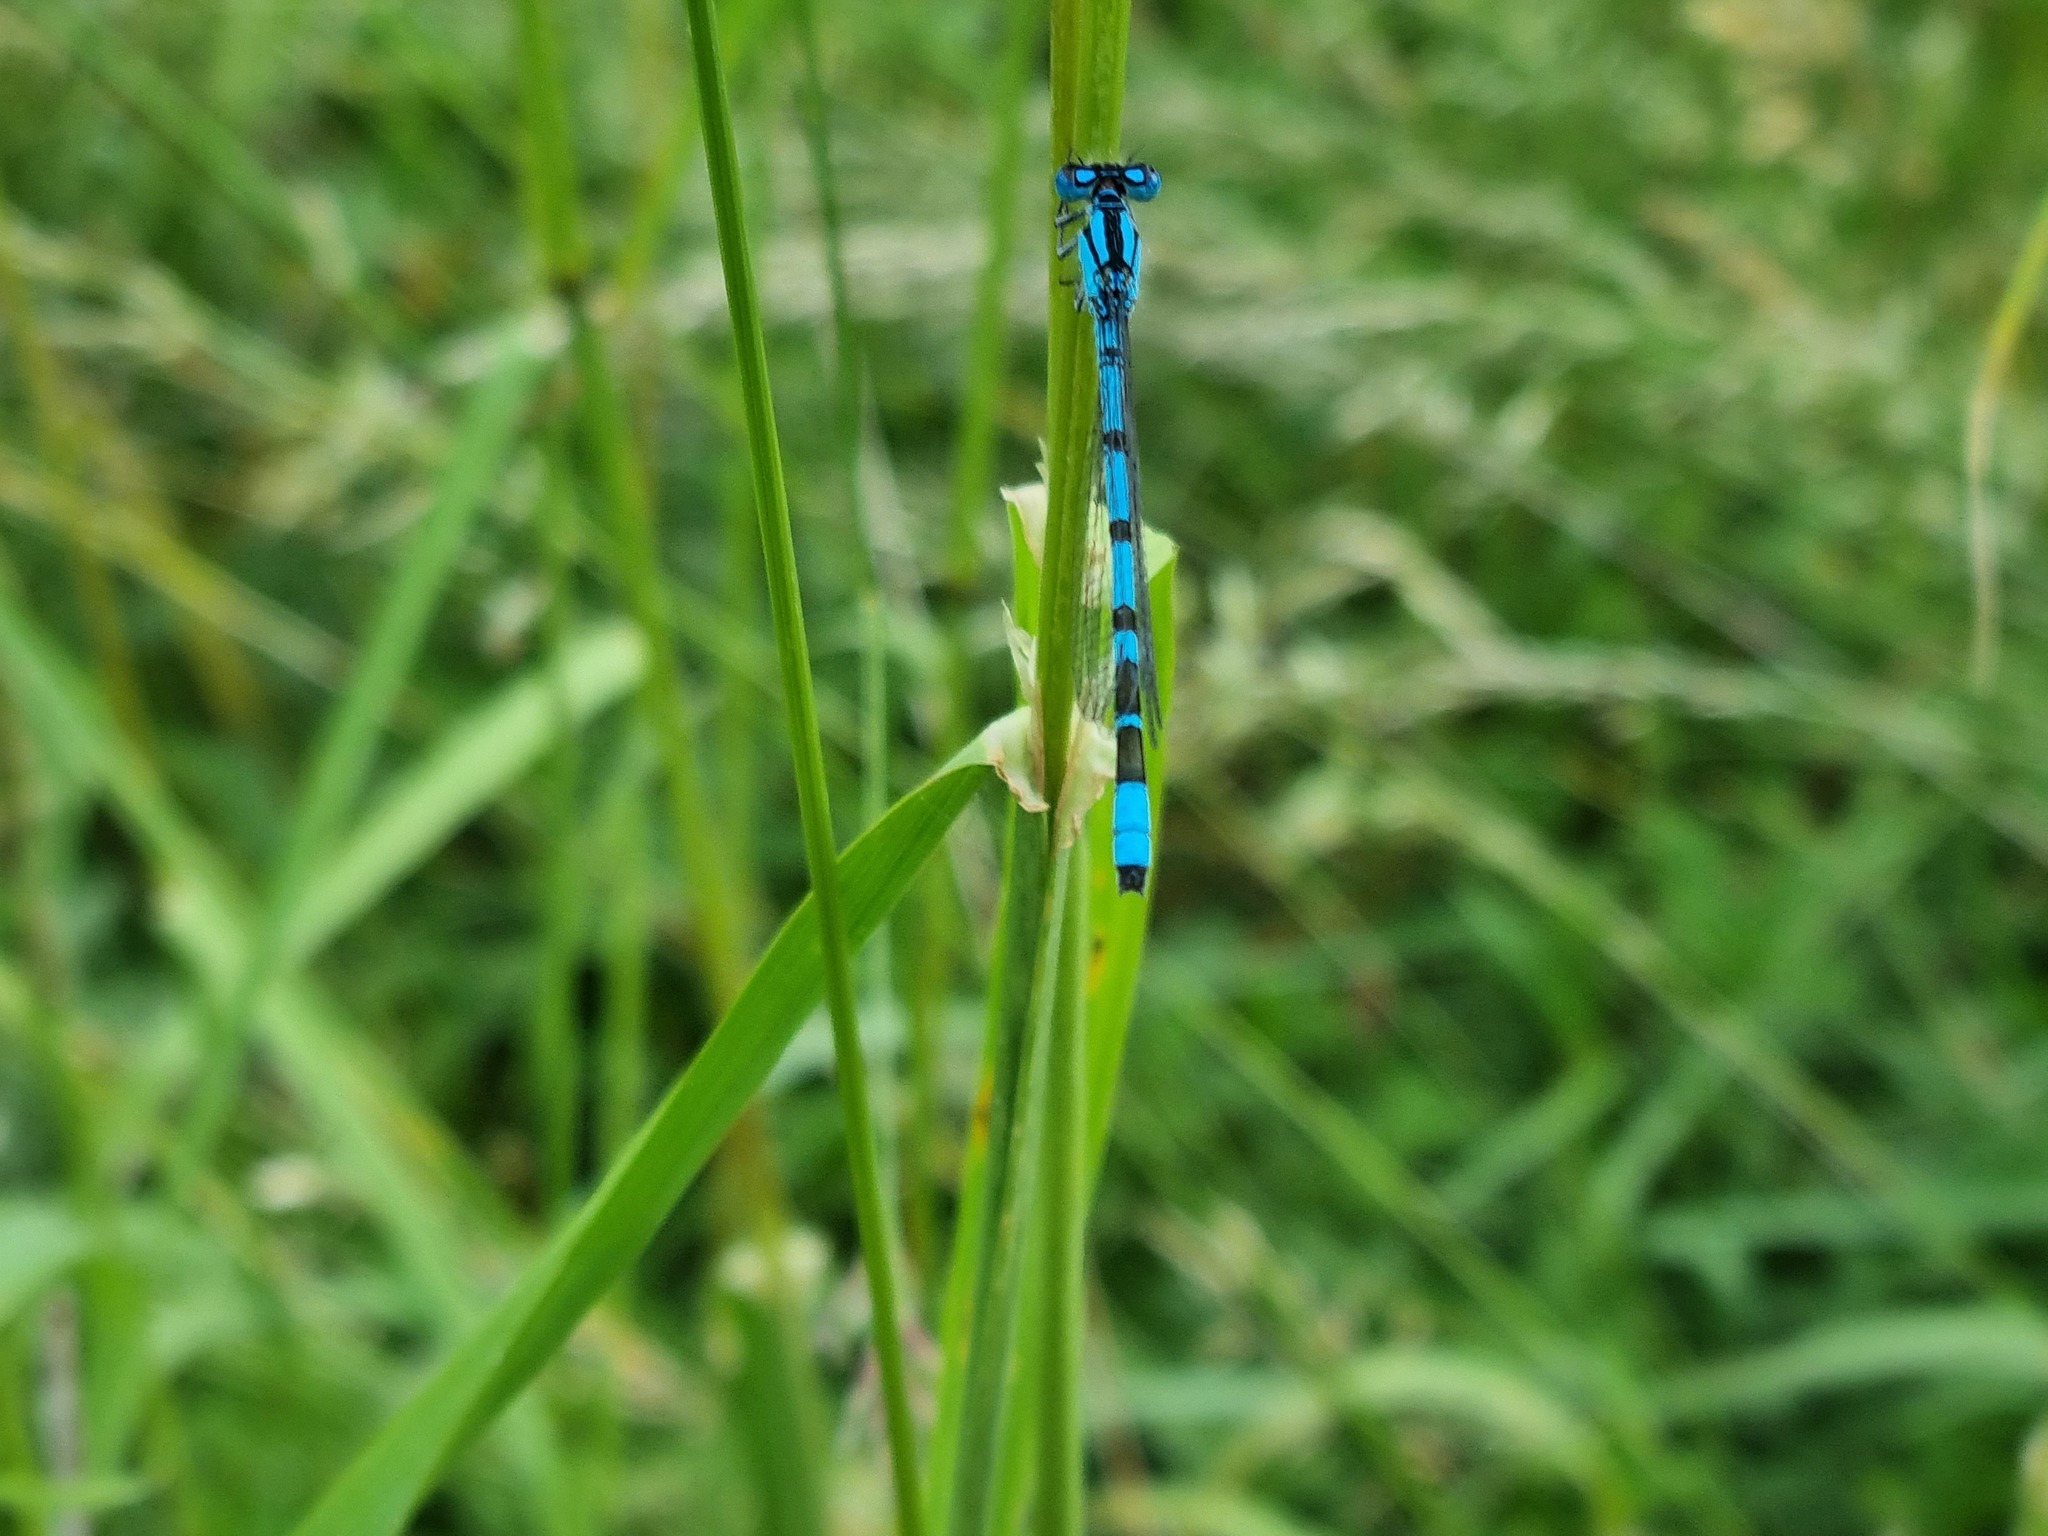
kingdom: Animalia
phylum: Arthropoda
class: Insecta
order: Odonata
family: Coenagrionidae
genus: Enallagma
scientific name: Enallagma cyathigerum
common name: Common blue damselfly
